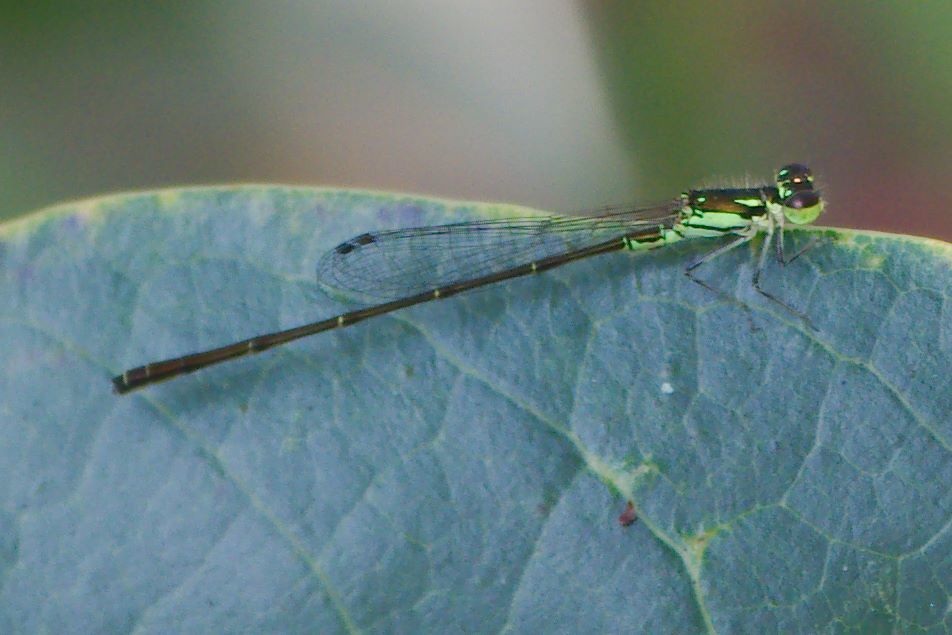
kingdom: Animalia
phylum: Arthropoda
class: Insecta
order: Odonata
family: Coenagrionidae
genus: Ischnura
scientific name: Ischnura posita
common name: Fragile forktail
